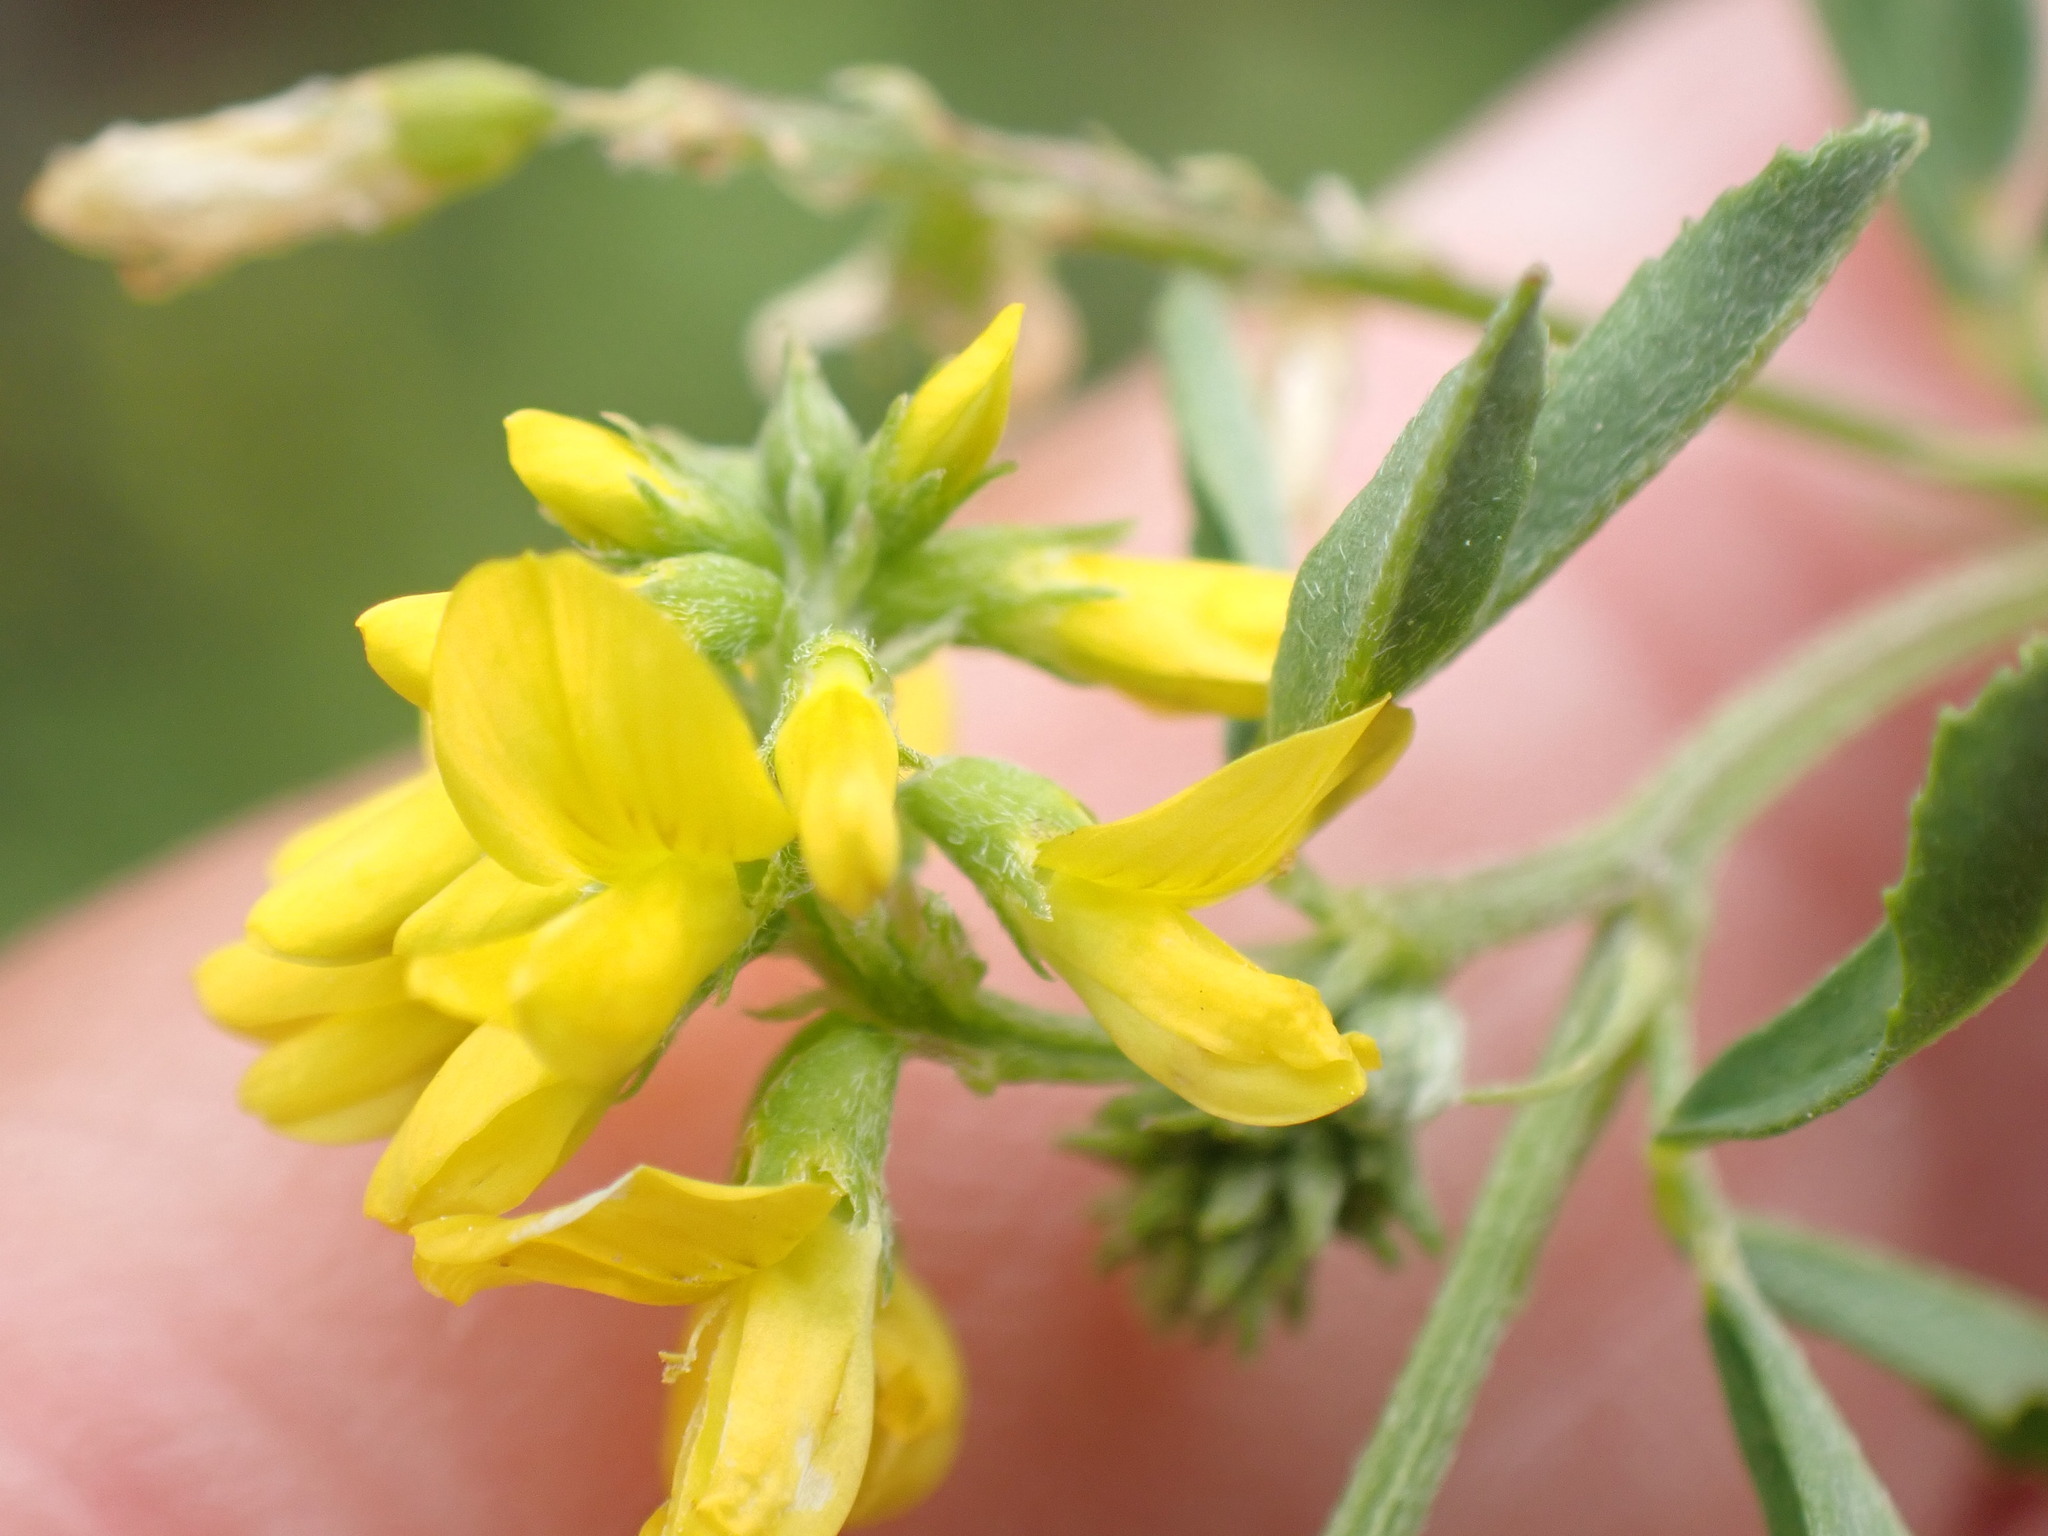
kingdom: Plantae
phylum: Tracheophyta
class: Magnoliopsida
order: Fabales
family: Fabaceae
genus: Melilotus
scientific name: Melilotus altissimus
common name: Tall melilot
